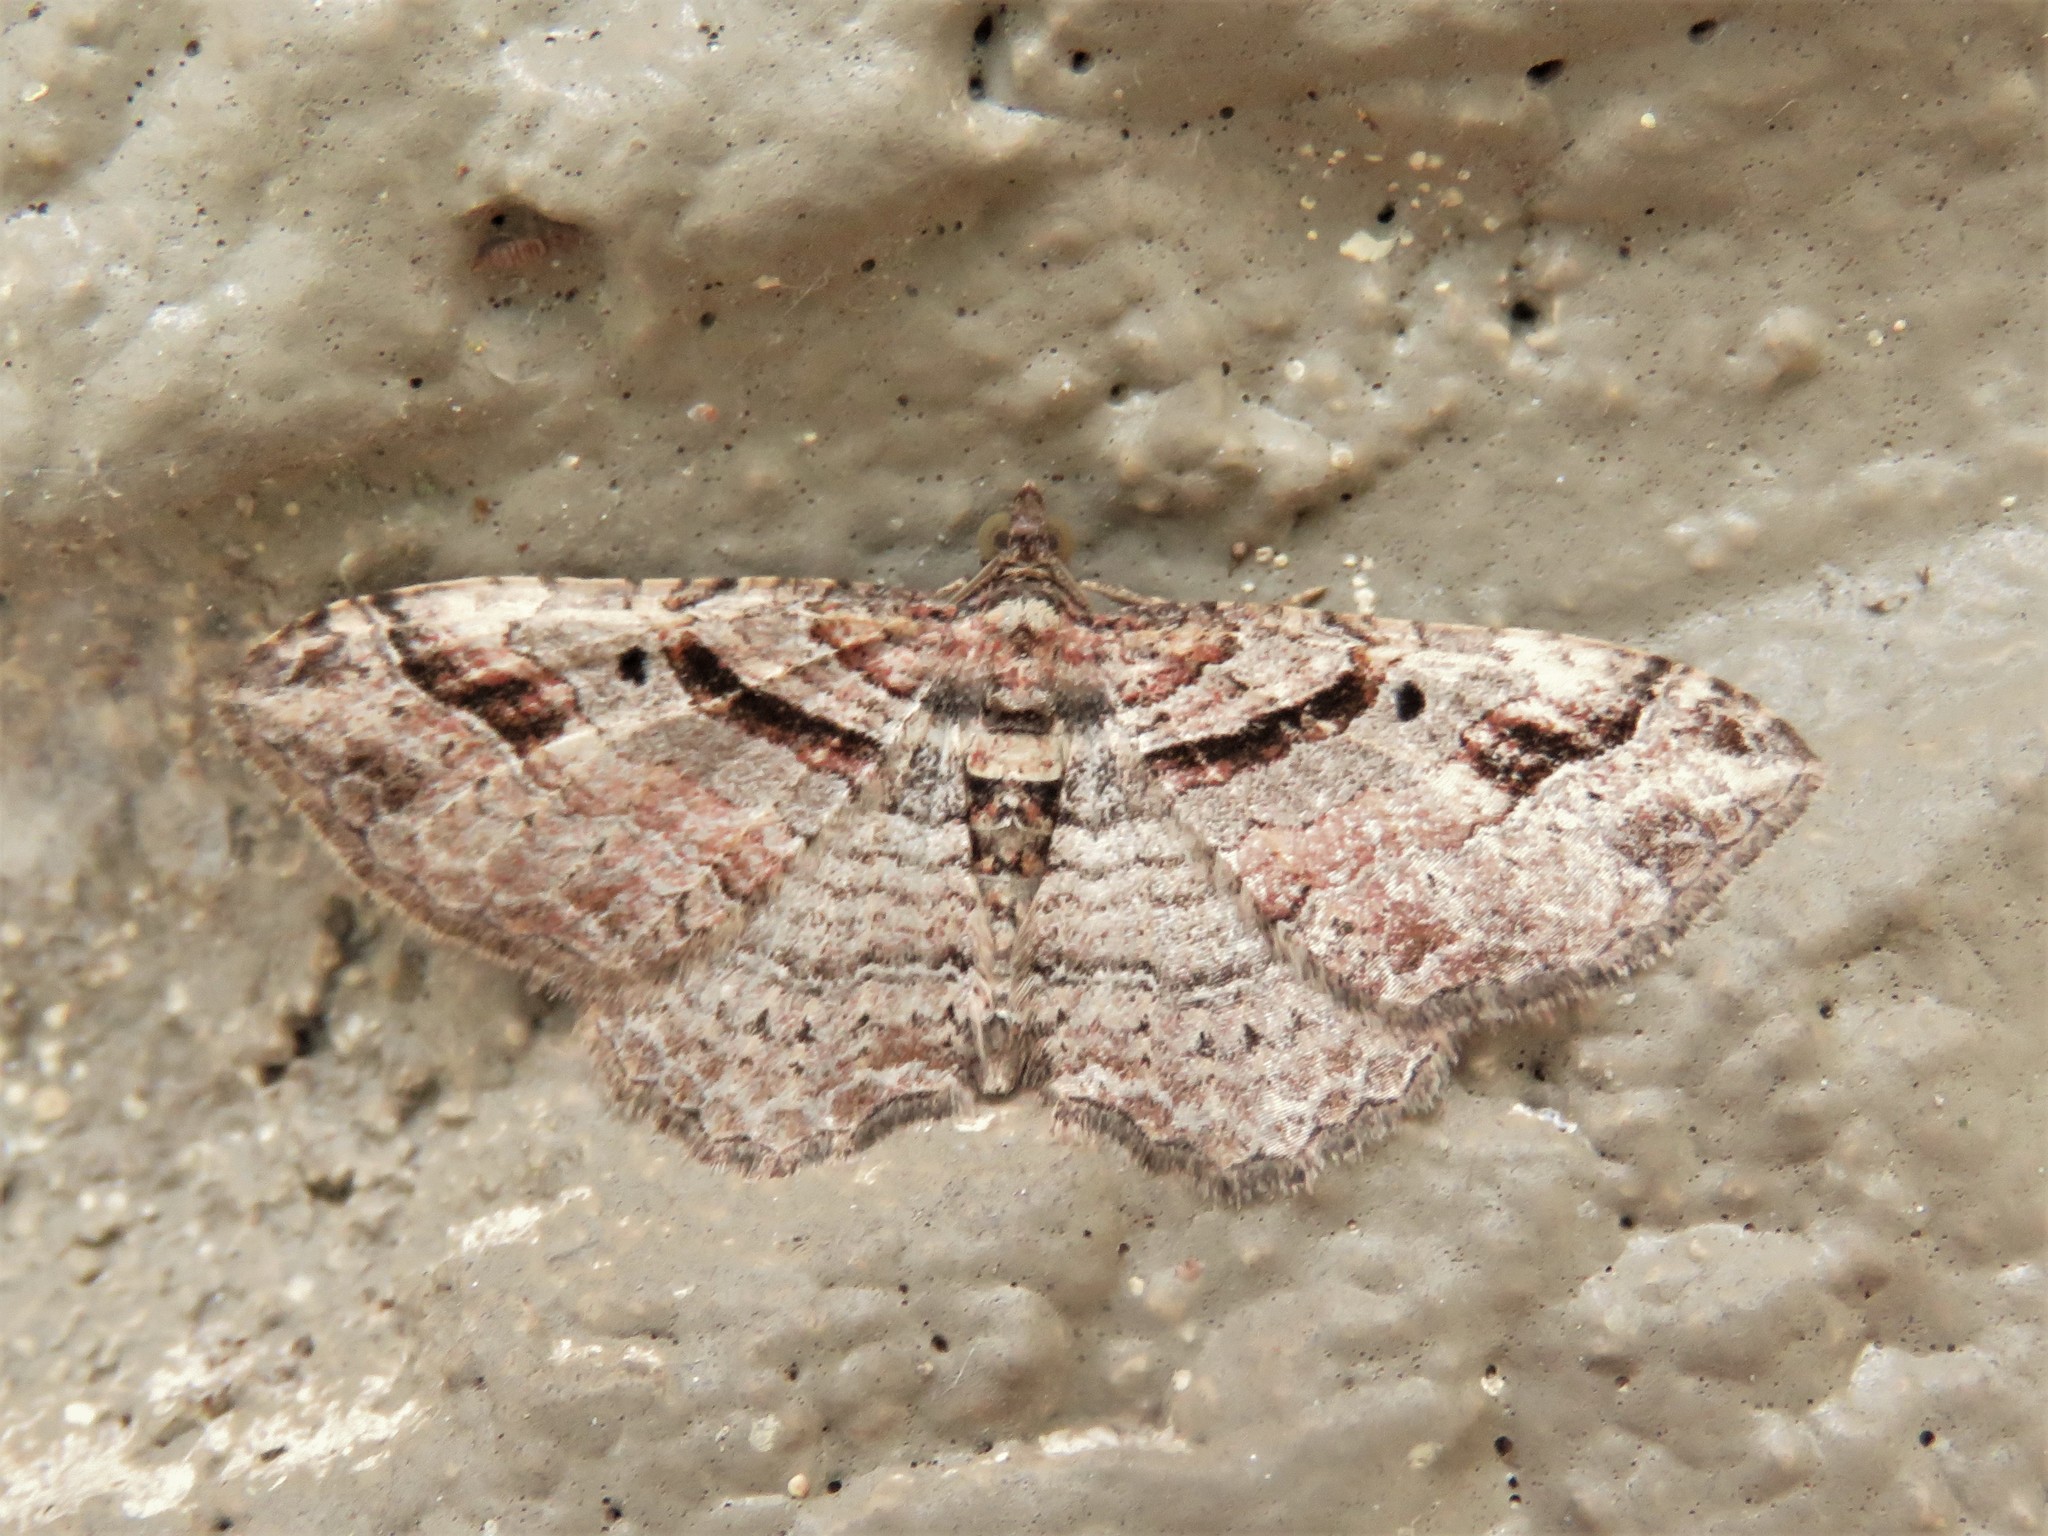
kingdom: Animalia
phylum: Arthropoda
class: Insecta
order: Lepidoptera
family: Geometridae
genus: Costaconvexa
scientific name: Costaconvexa centrostrigaria
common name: Bent-line carpet
